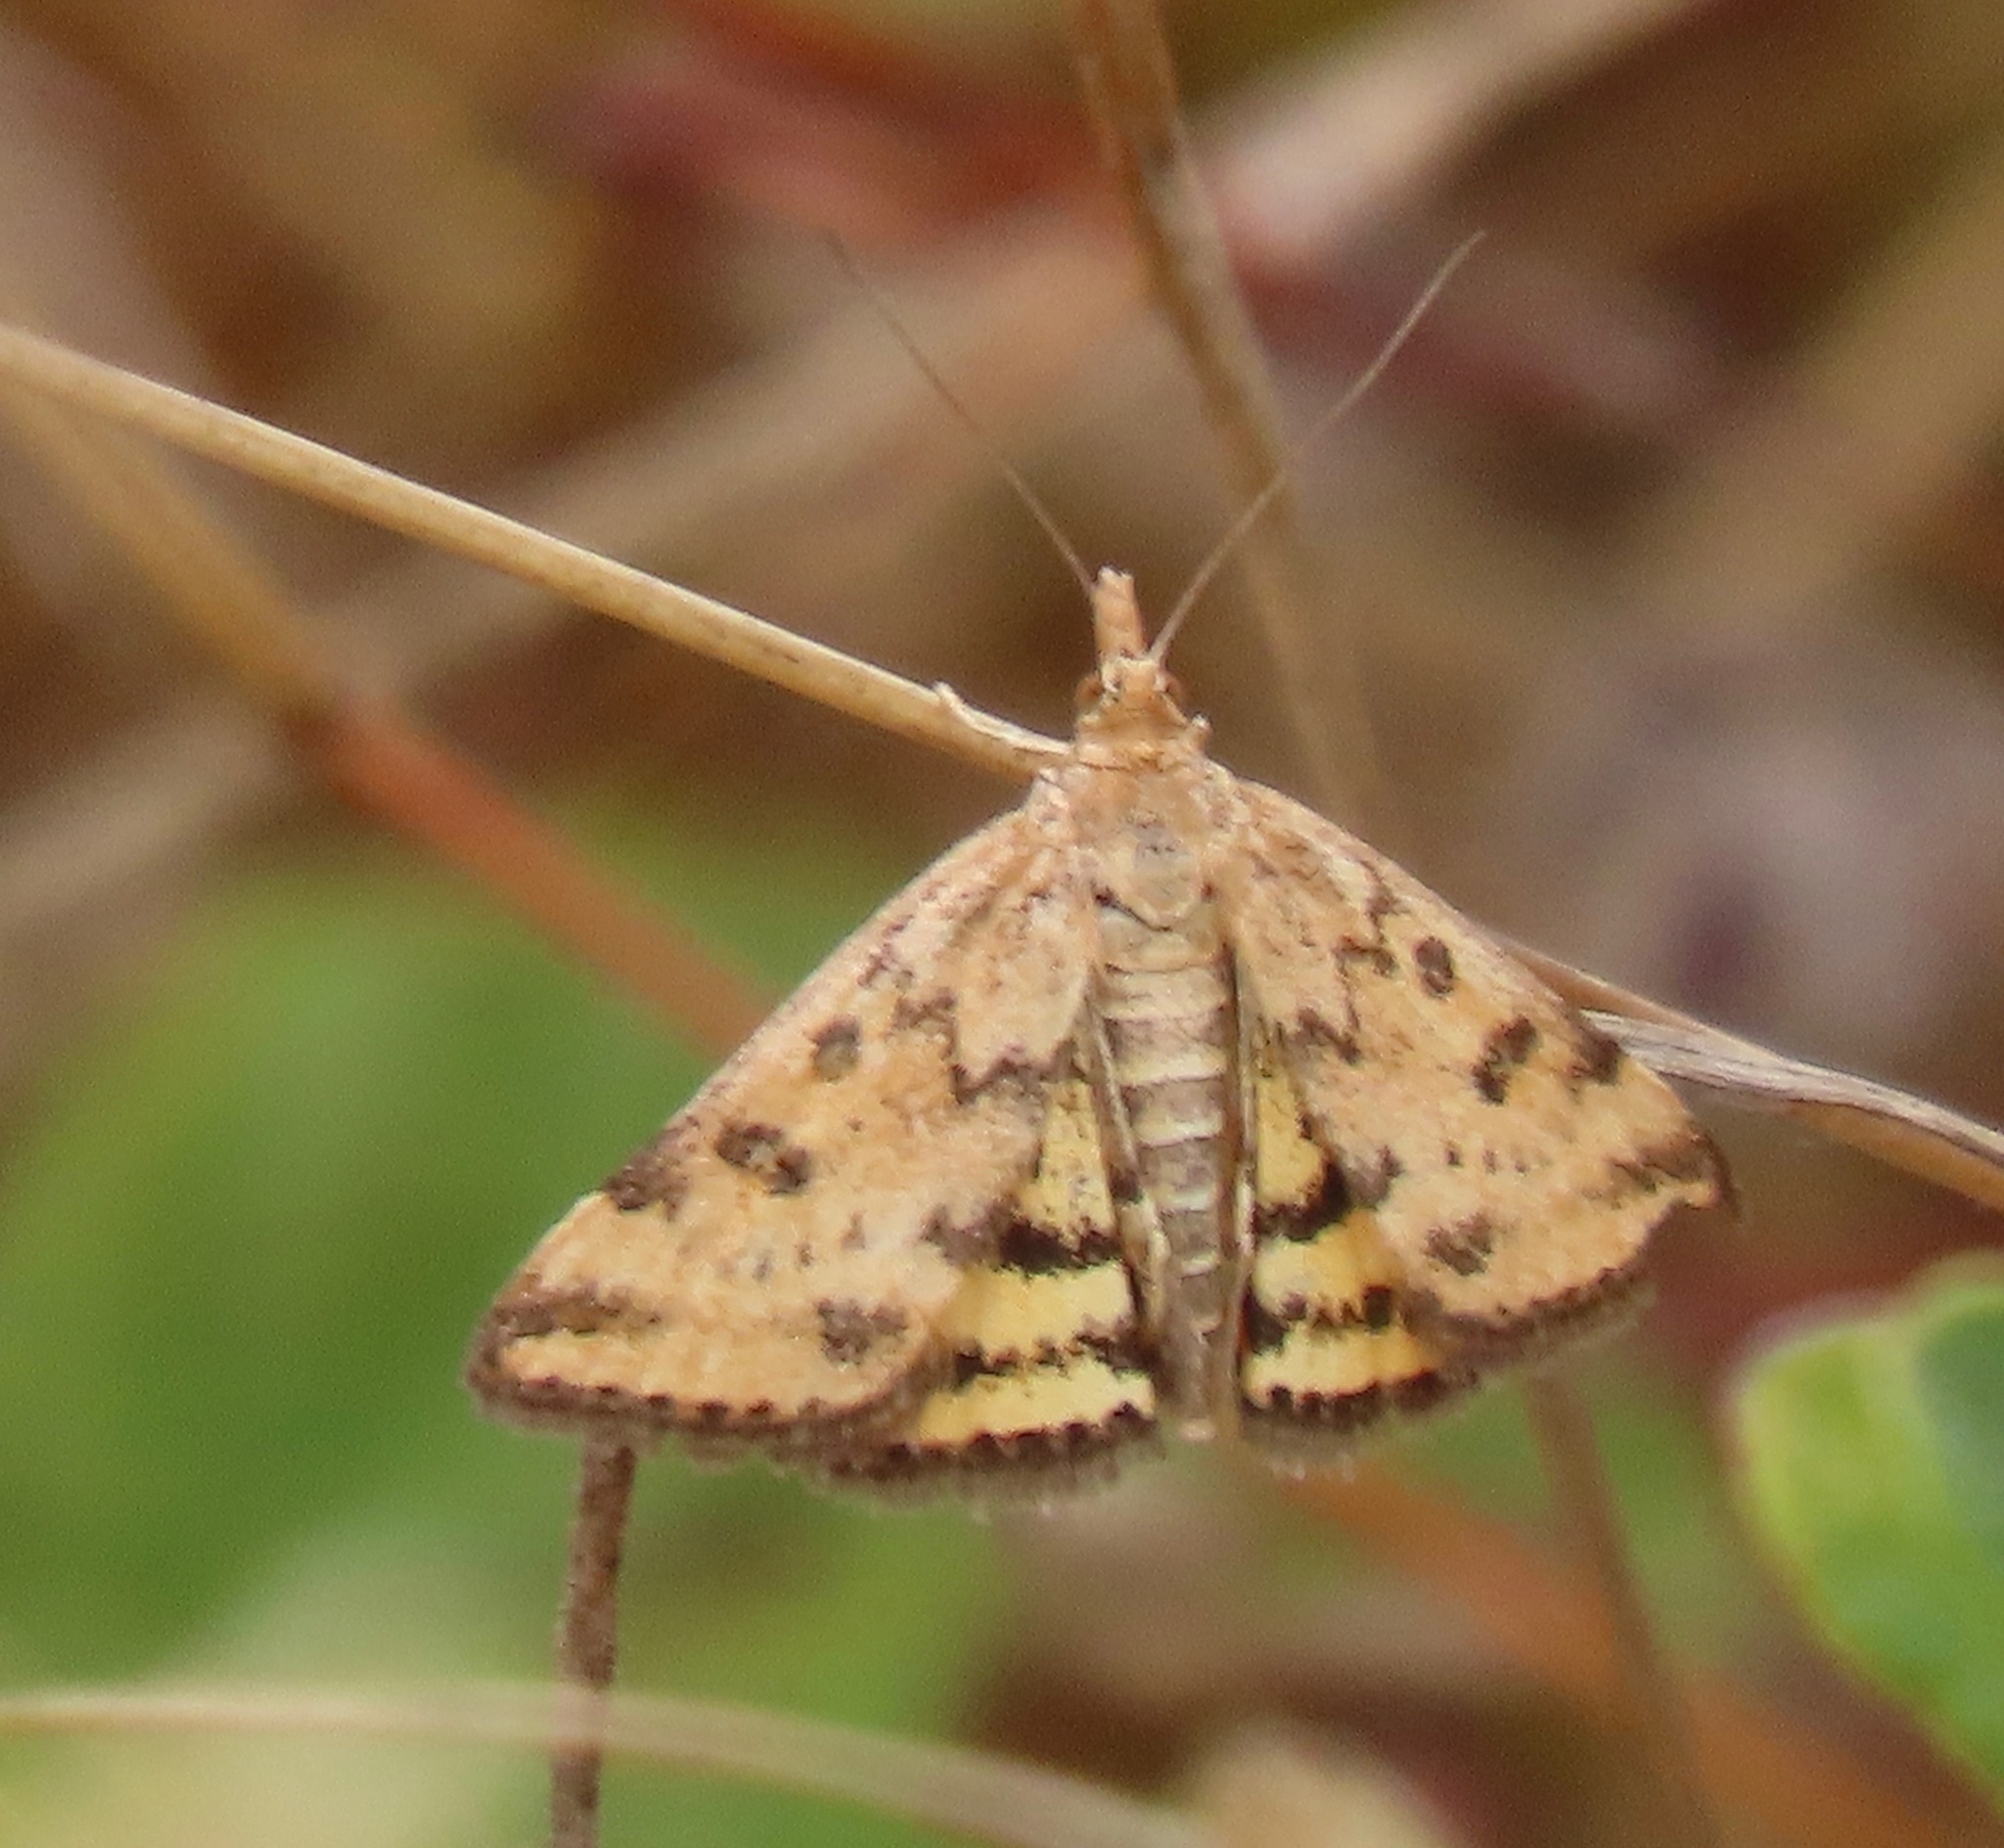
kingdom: Animalia
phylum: Arthropoda
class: Insecta
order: Lepidoptera
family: Crambidae
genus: Pyrausta
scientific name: Pyrausta subsequalis
